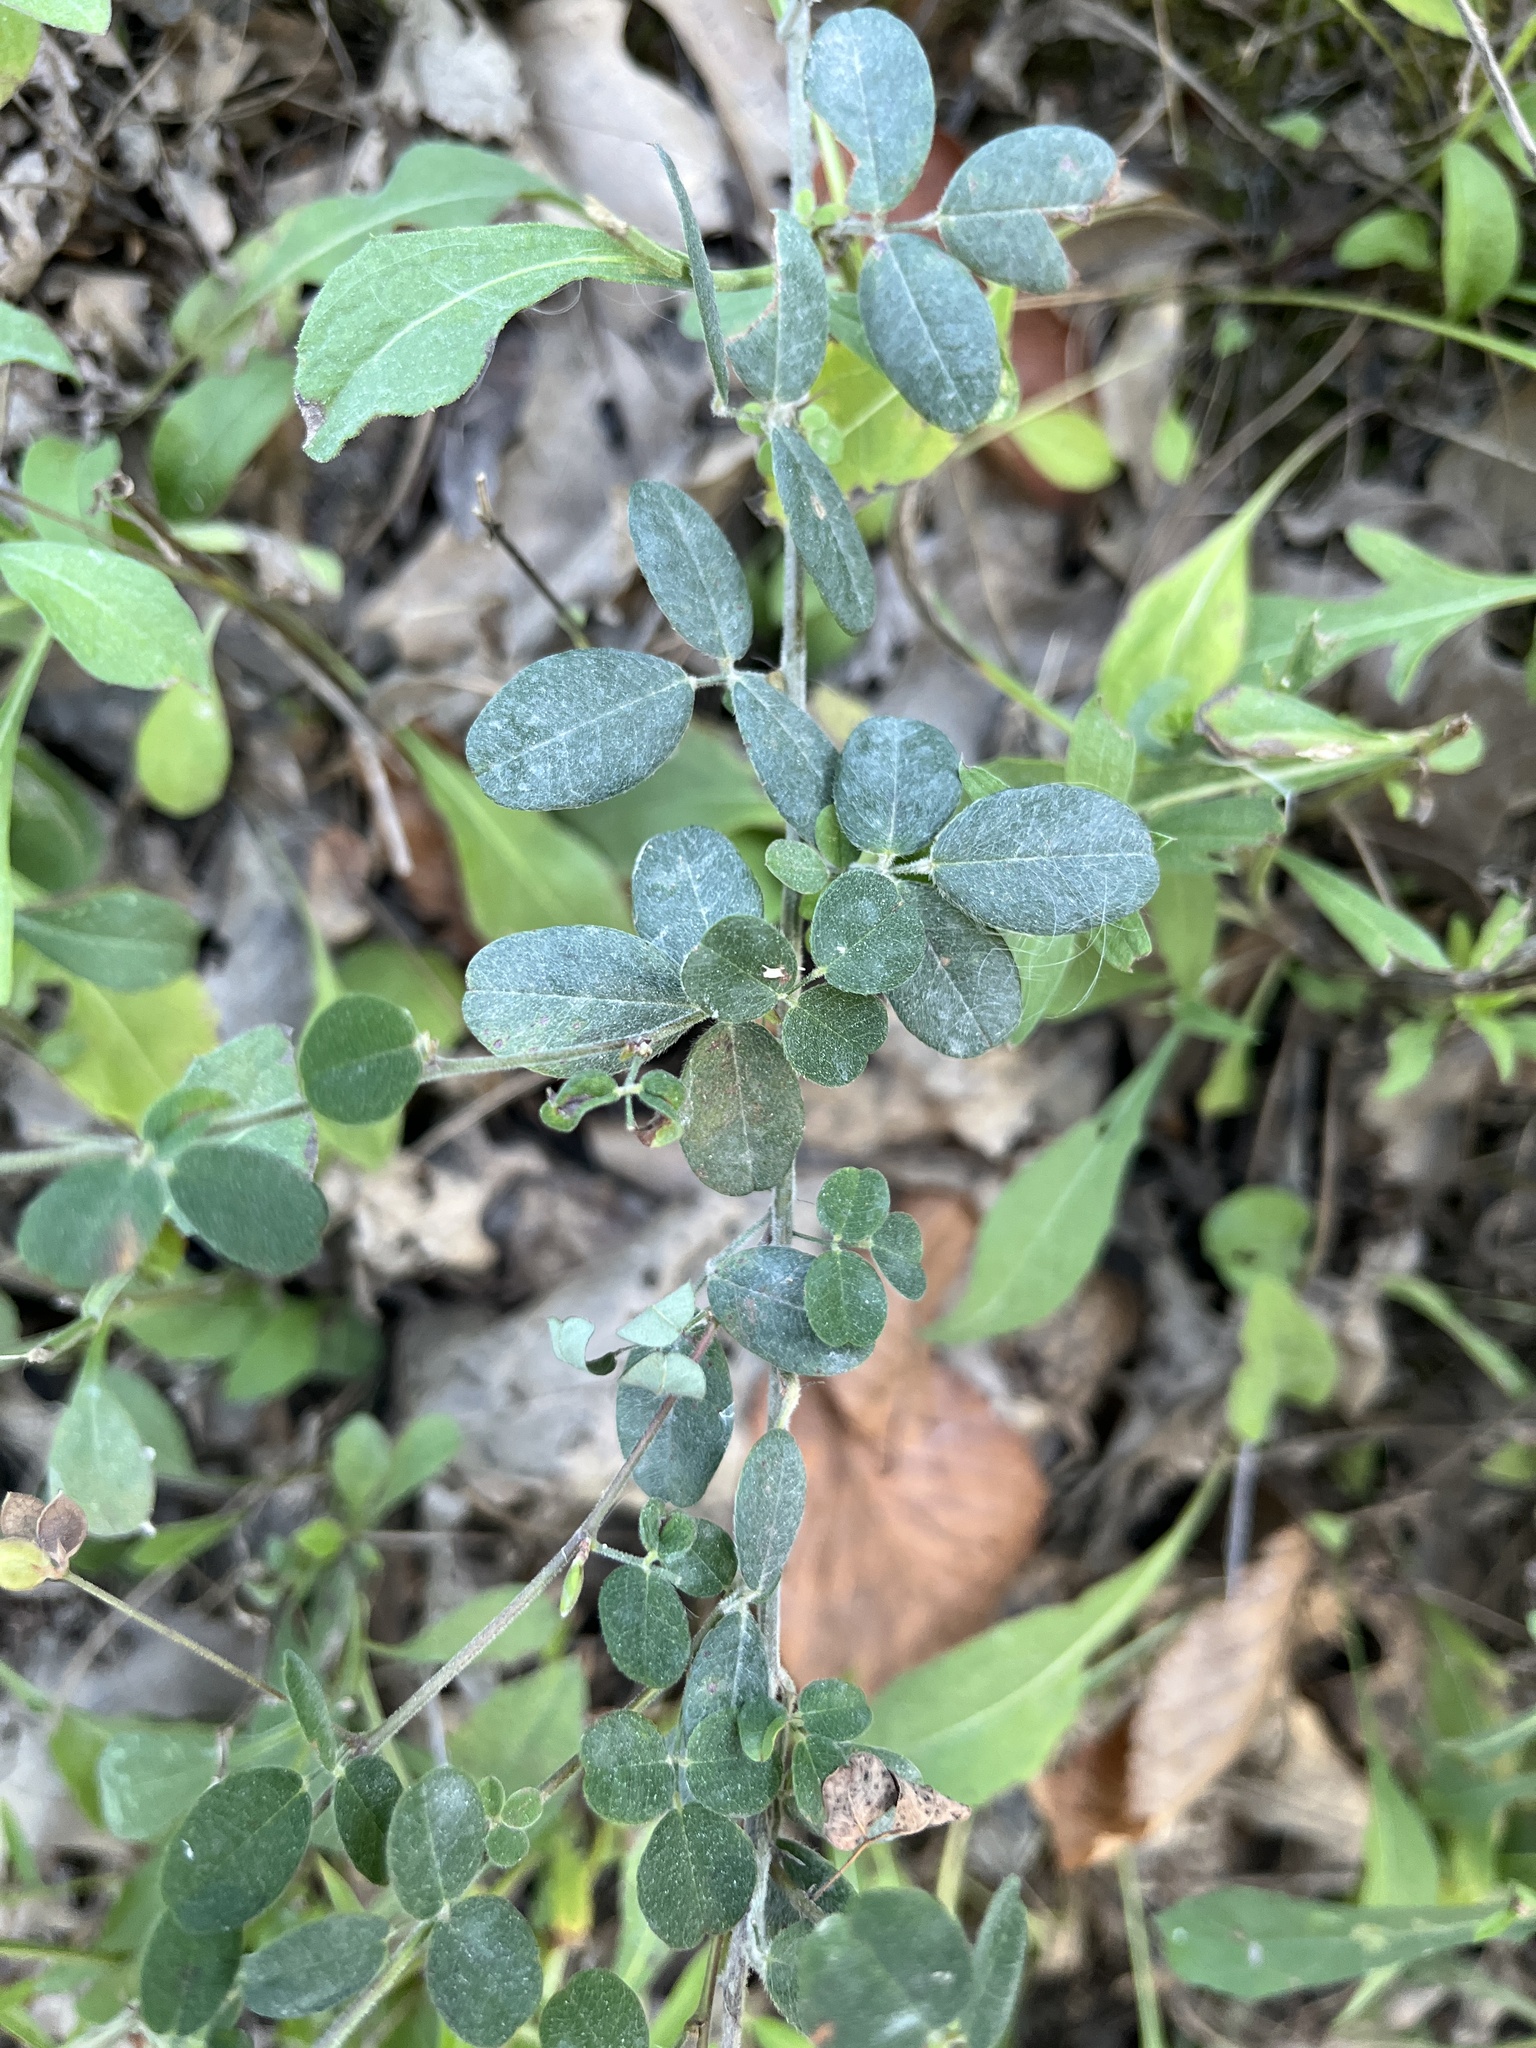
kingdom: Plantae
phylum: Tracheophyta
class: Magnoliopsida
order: Fabales
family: Fabaceae
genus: Lespedeza
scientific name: Lespedeza procumbens
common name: Downy trailing bush-clover
